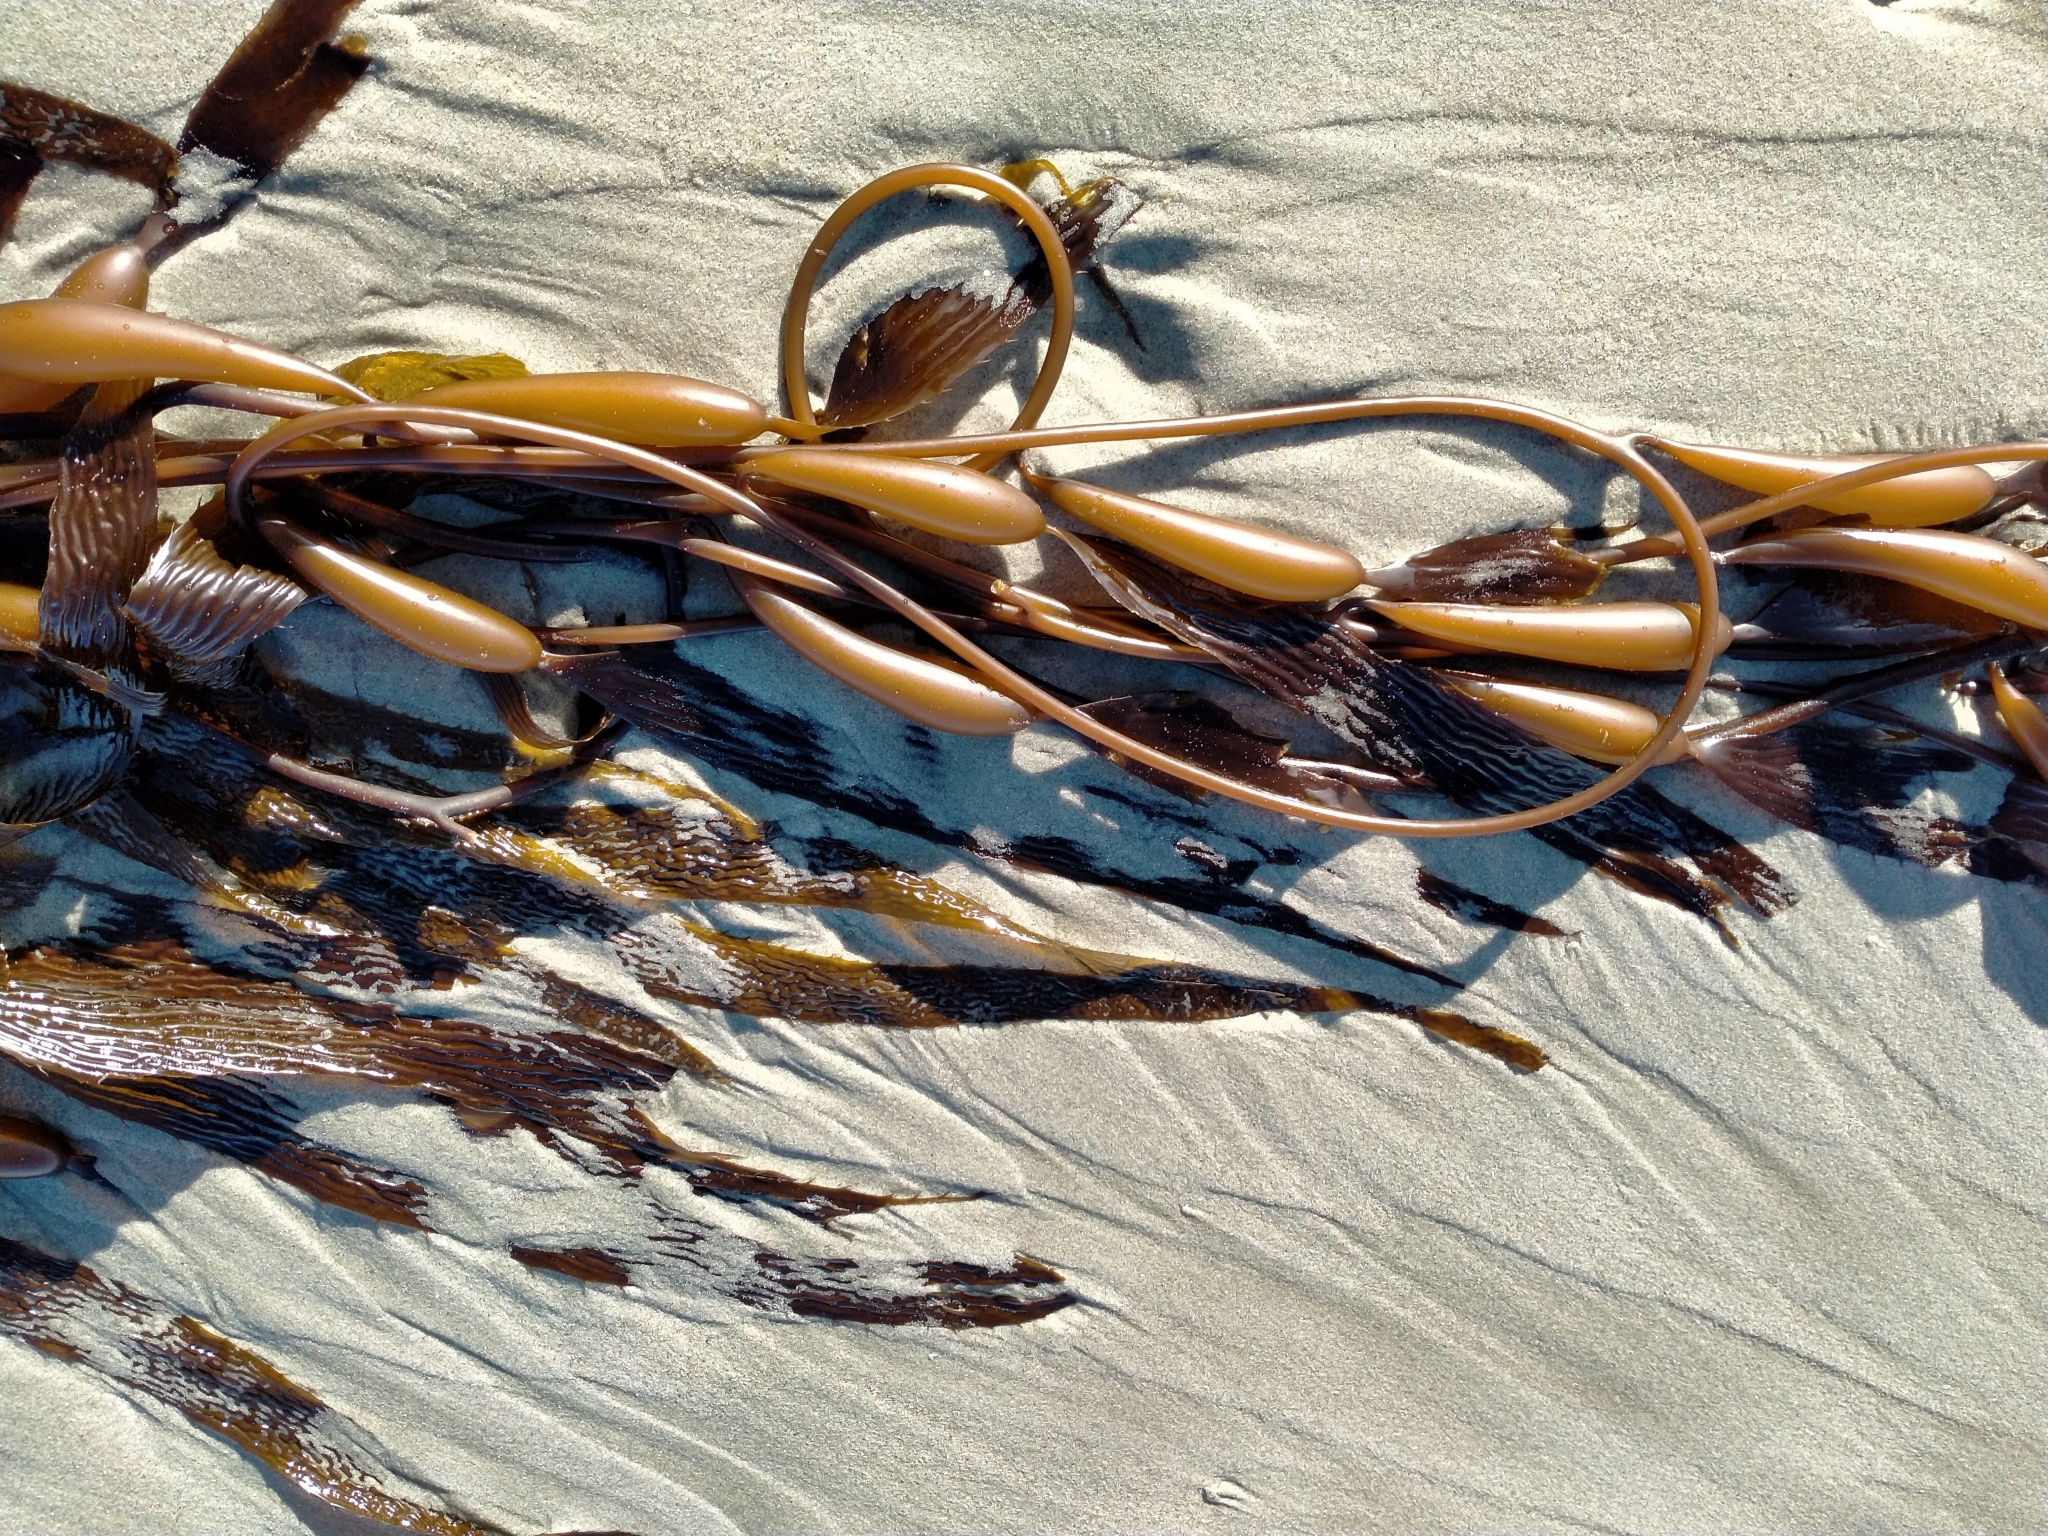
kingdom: Chromista
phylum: Ochrophyta
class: Phaeophyceae
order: Laminariales
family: Laminariaceae
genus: Macrocystis
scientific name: Macrocystis pyrifera
